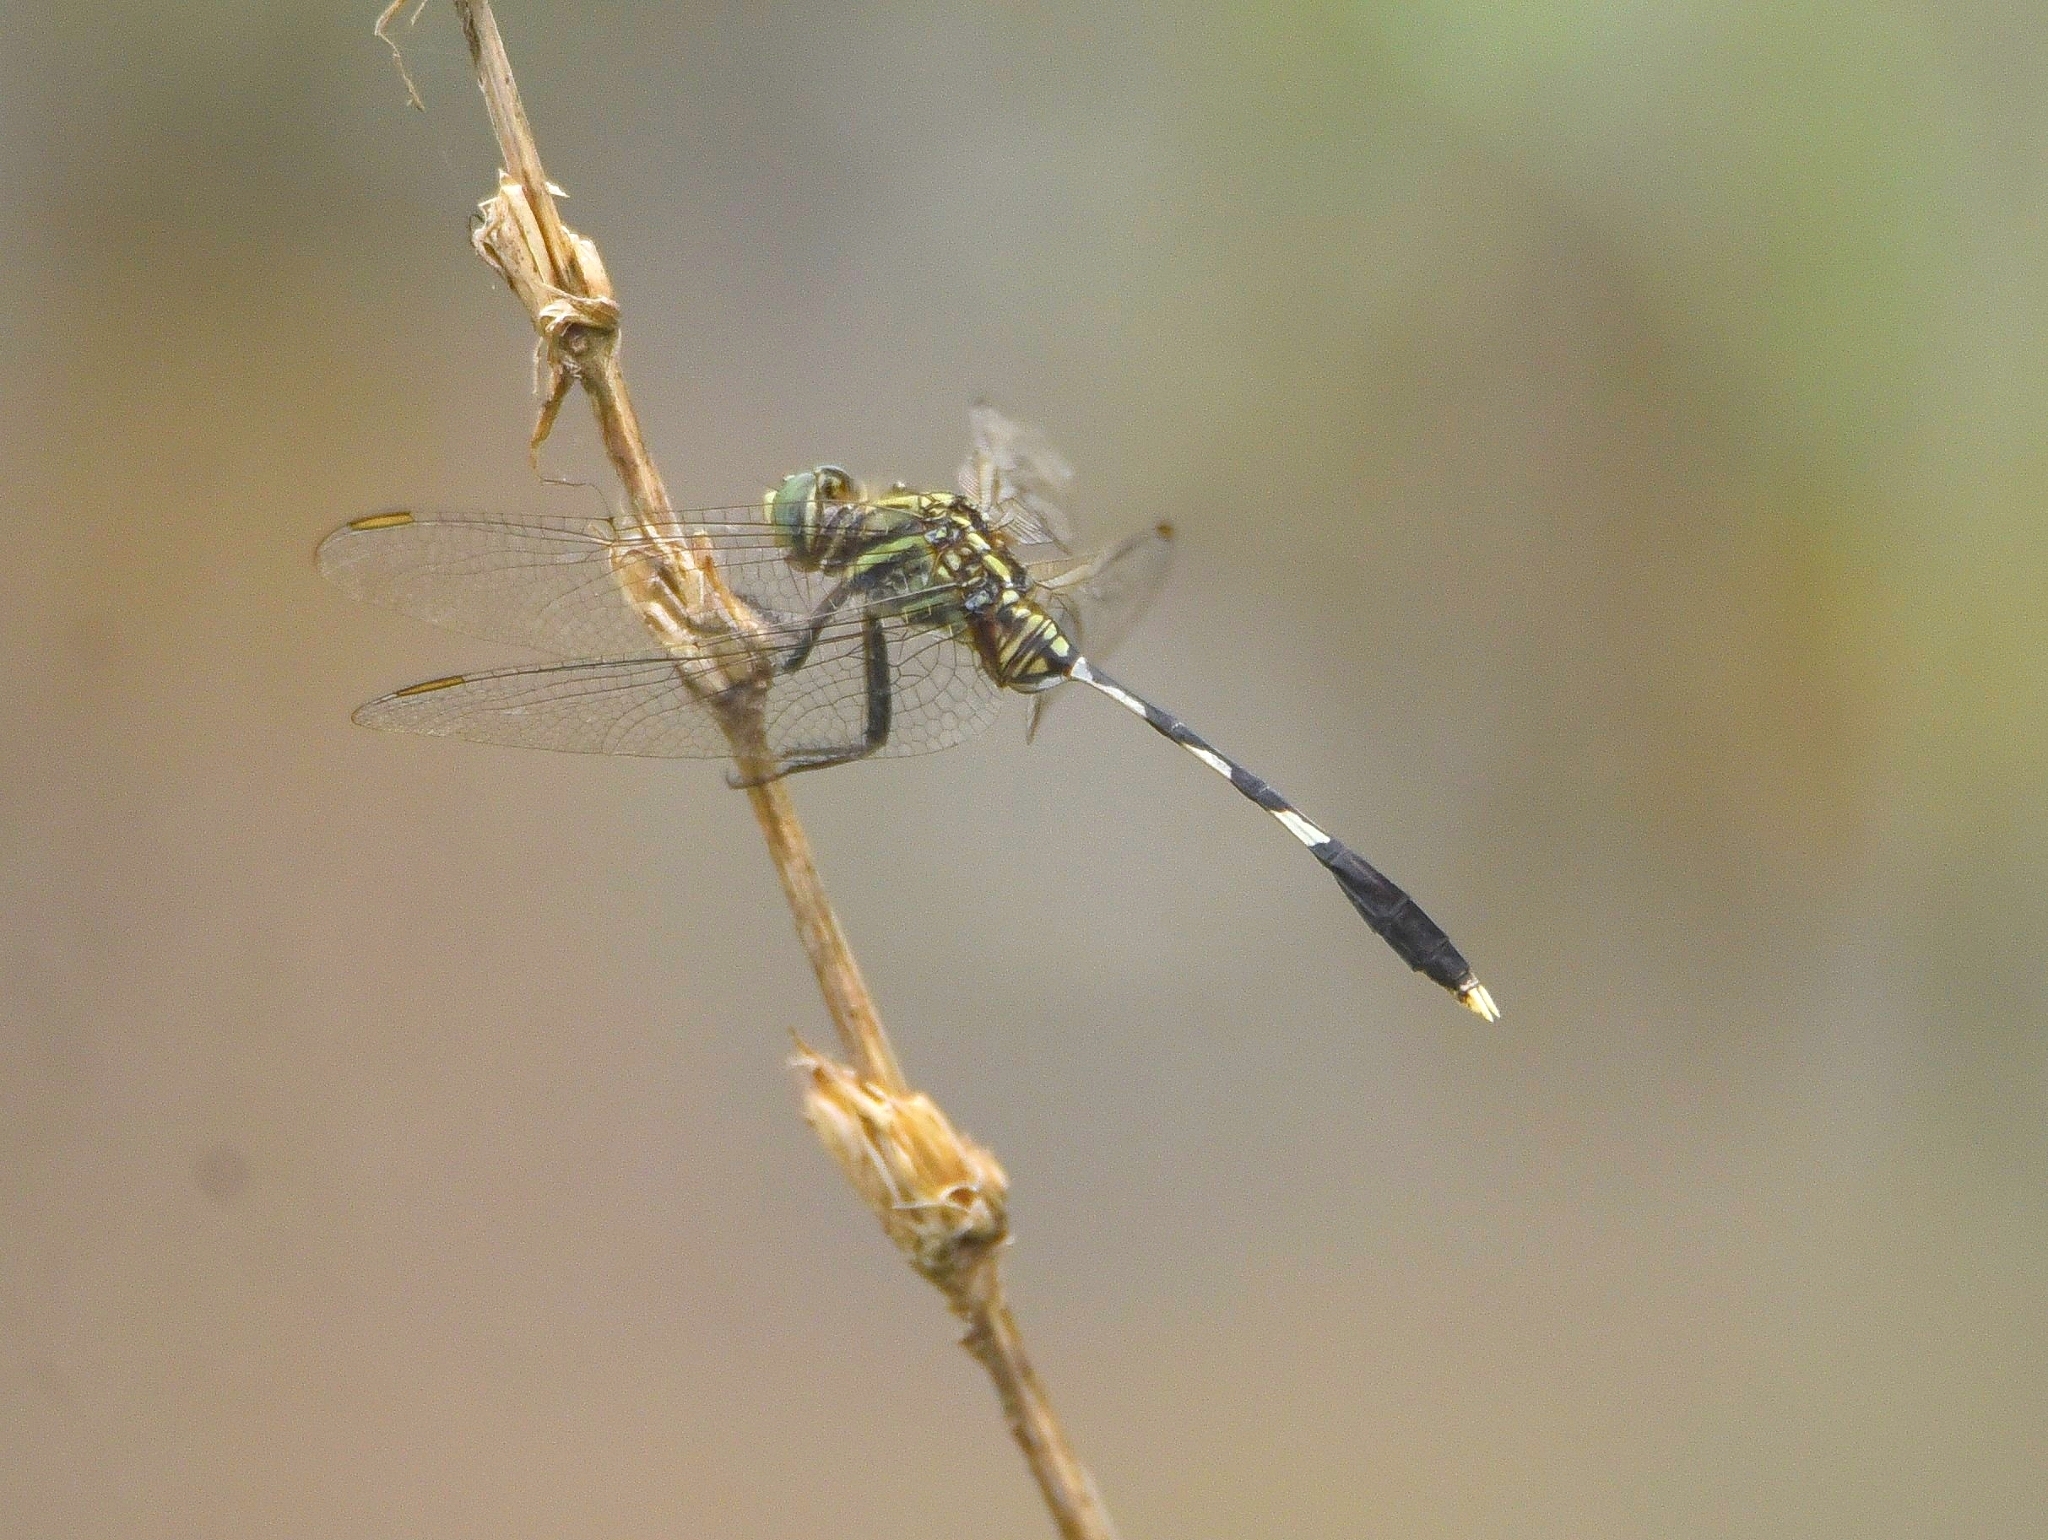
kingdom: Animalia
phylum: Arthropoda
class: Insecta
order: Odonata
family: Libellulidae
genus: Orthetrum
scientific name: Orthetrum sabina
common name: Slender skimmer
